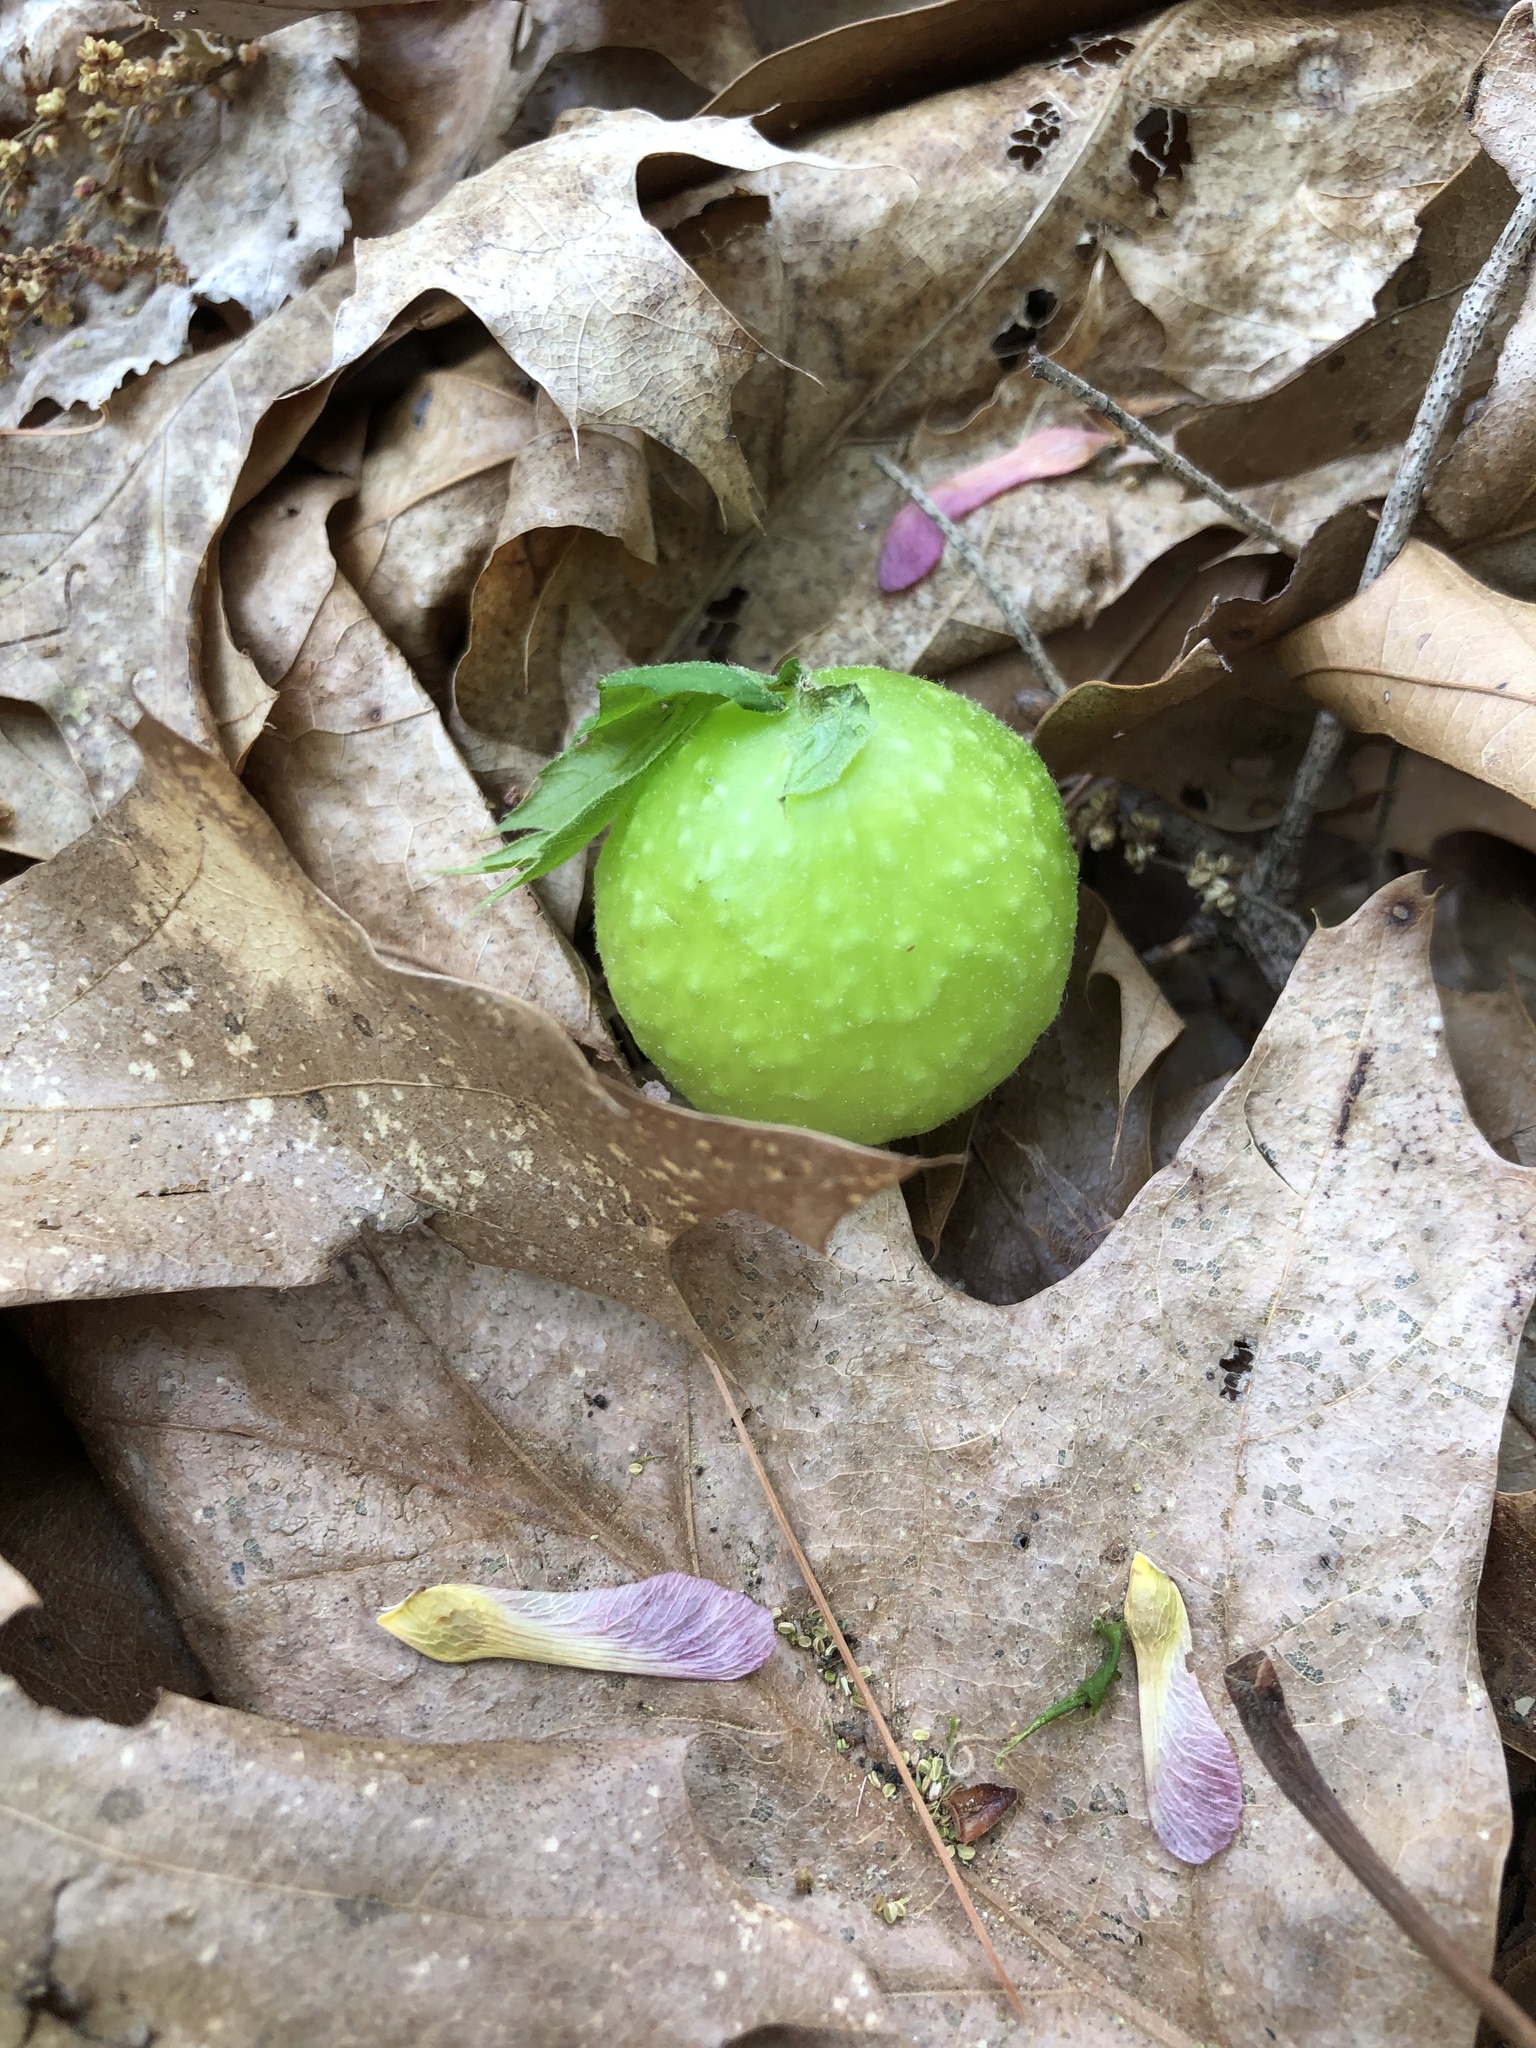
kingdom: Animalia
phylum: Arthropoda
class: Insecta
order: Hymenoptera
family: Cynipidae
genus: Amphibolips
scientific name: Amphibolips
